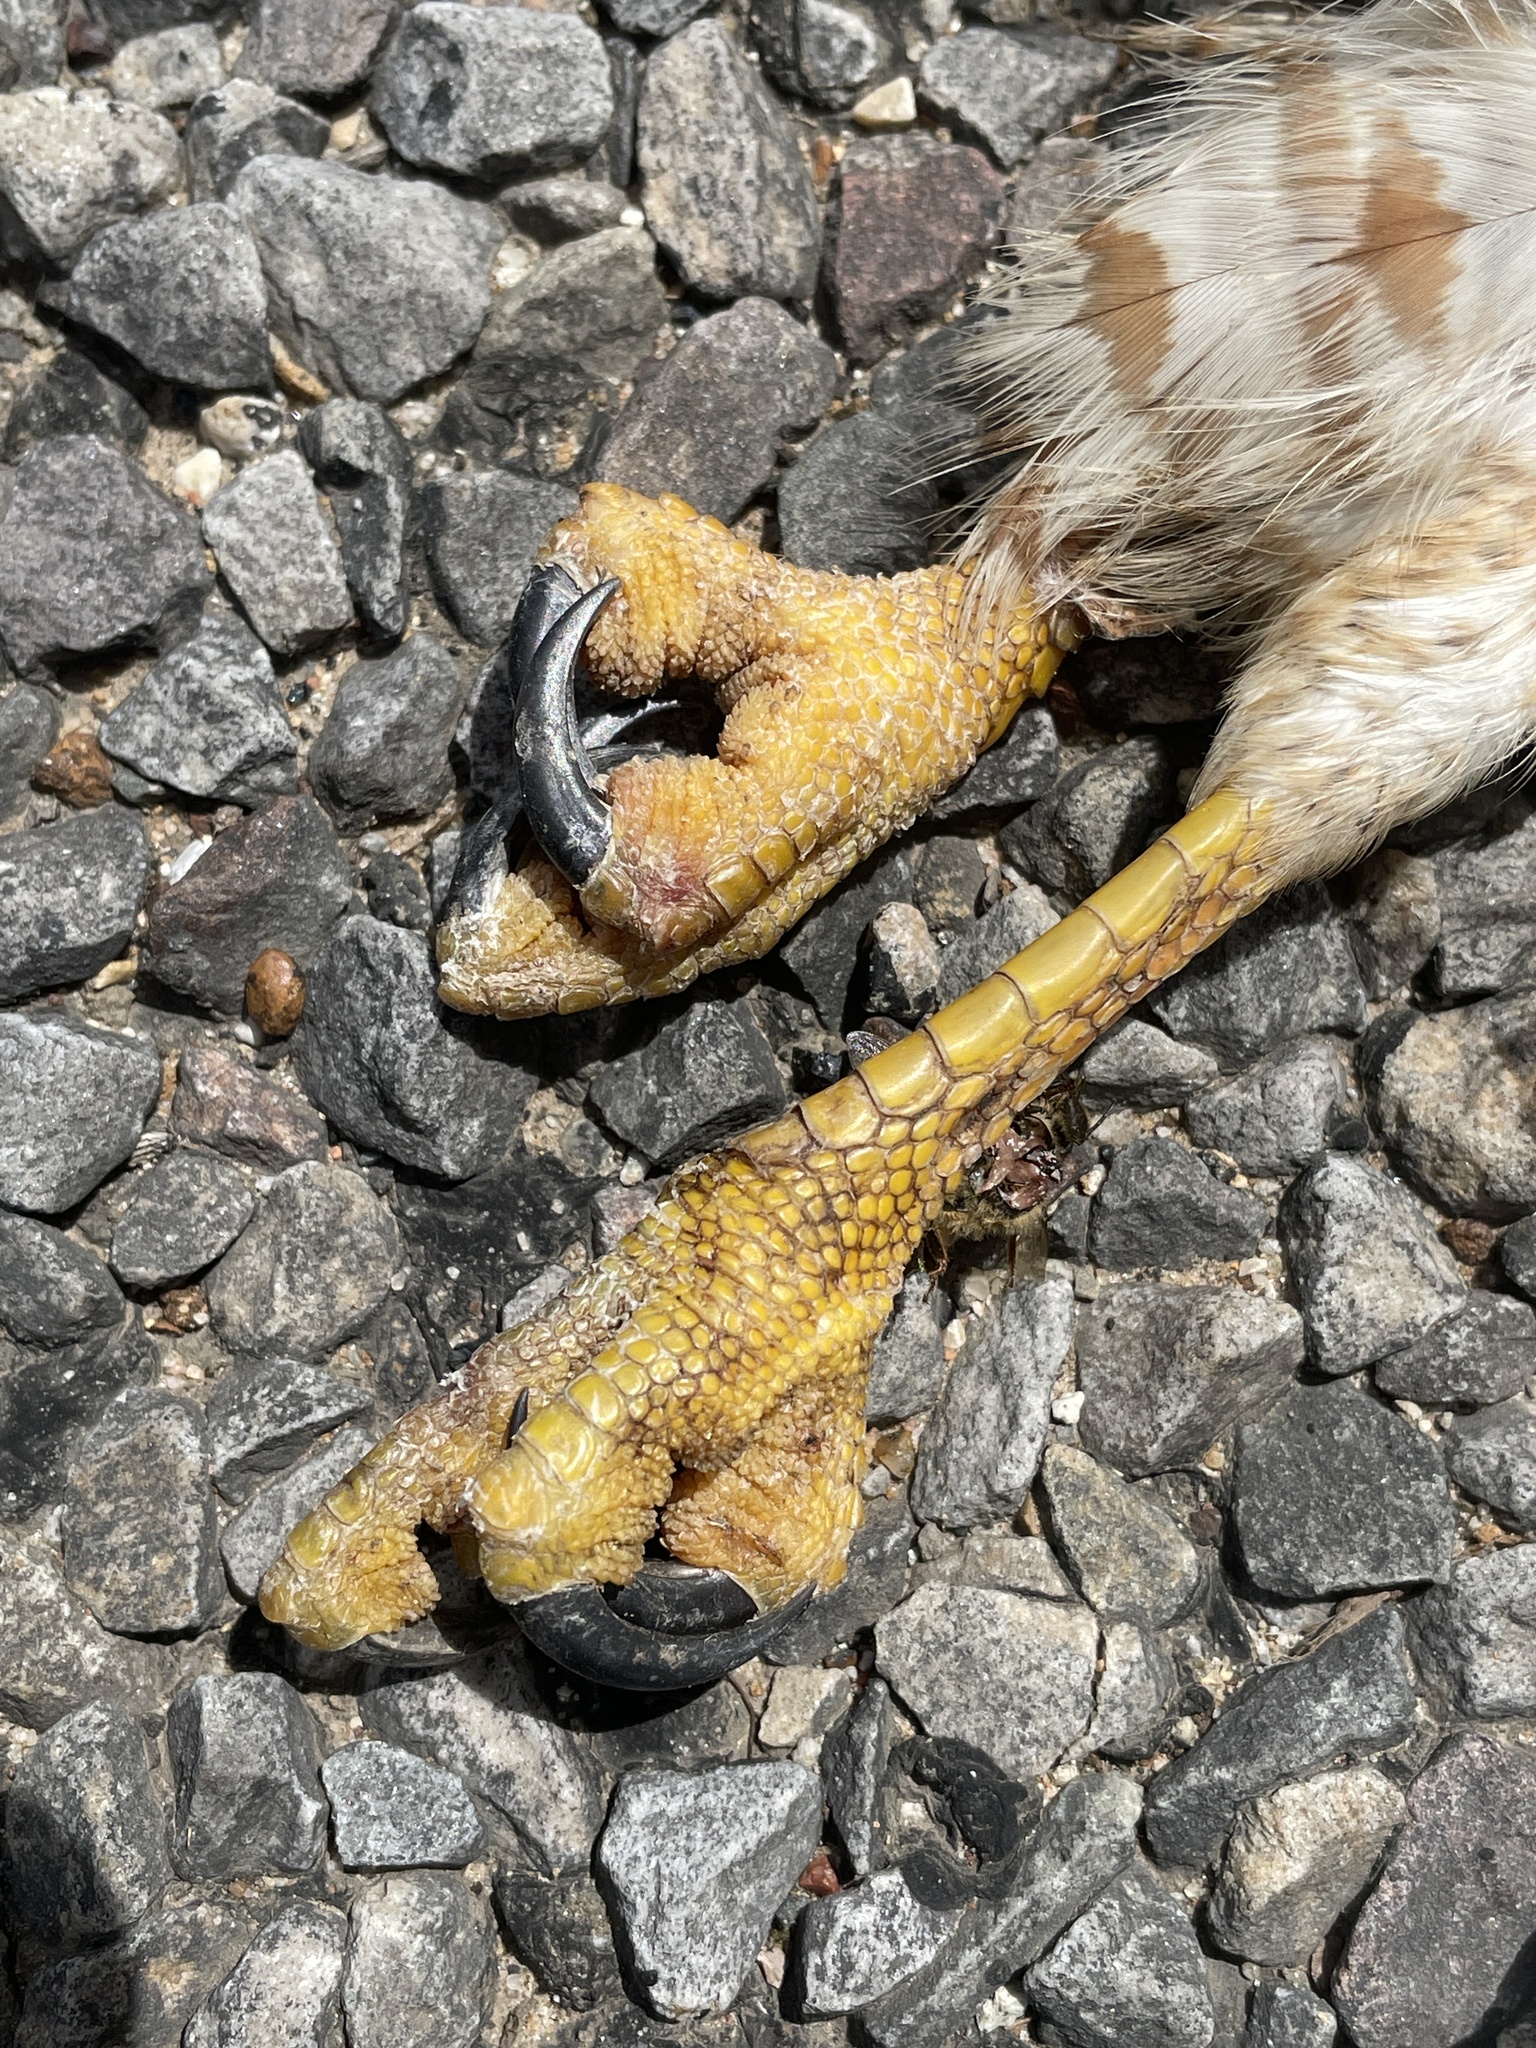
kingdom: Animalia
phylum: Chordata
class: Aves
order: Accipitriformes
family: Accipitridae
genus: Buteo
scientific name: Buteo platypterus
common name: Broad-winged hawk
